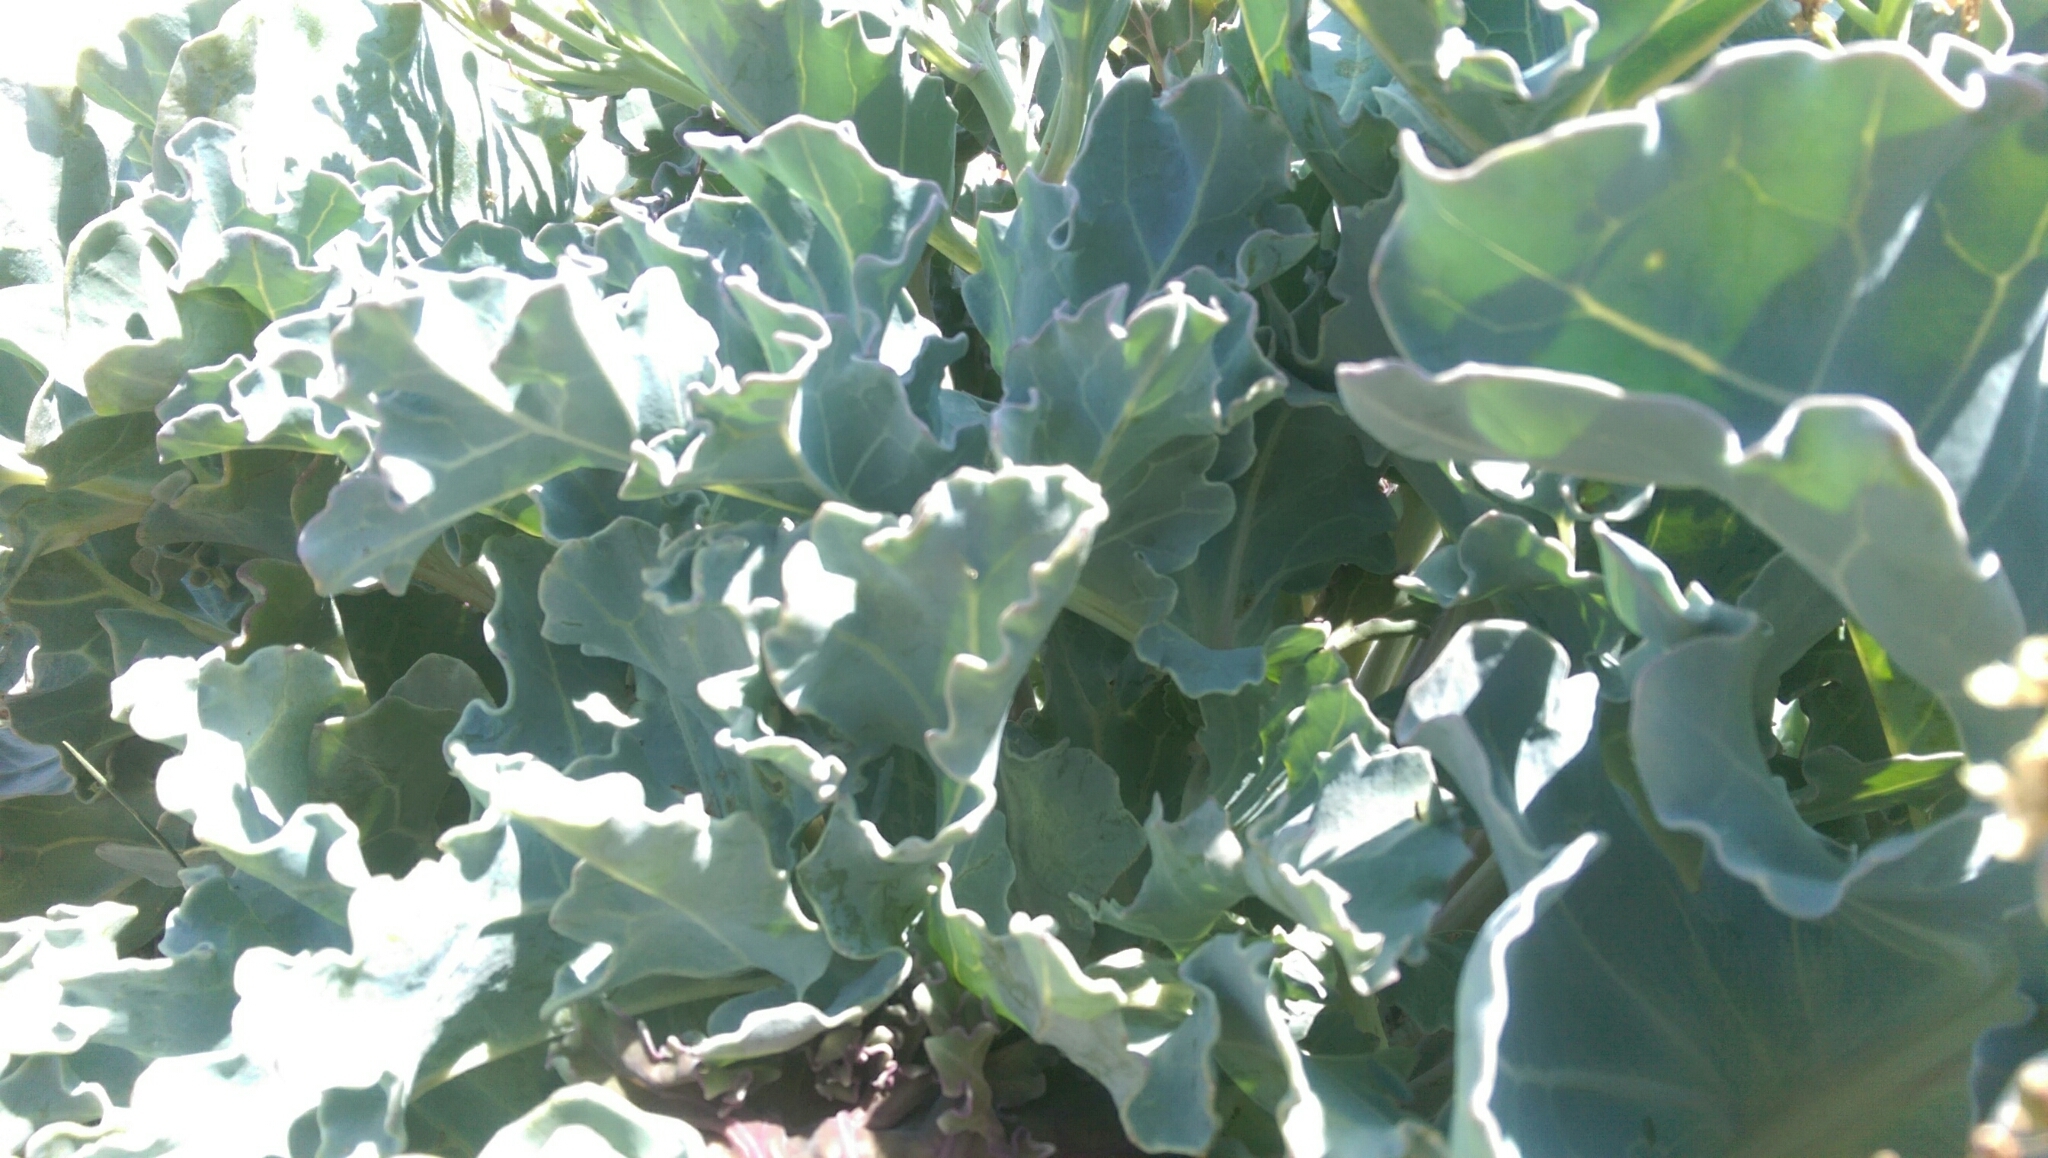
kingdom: Plantae
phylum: Tracheophyta
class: Magnoliopsida
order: Brassicales
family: Brassicaceae
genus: Crambe
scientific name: Crambe maritima
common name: Sea-kale
